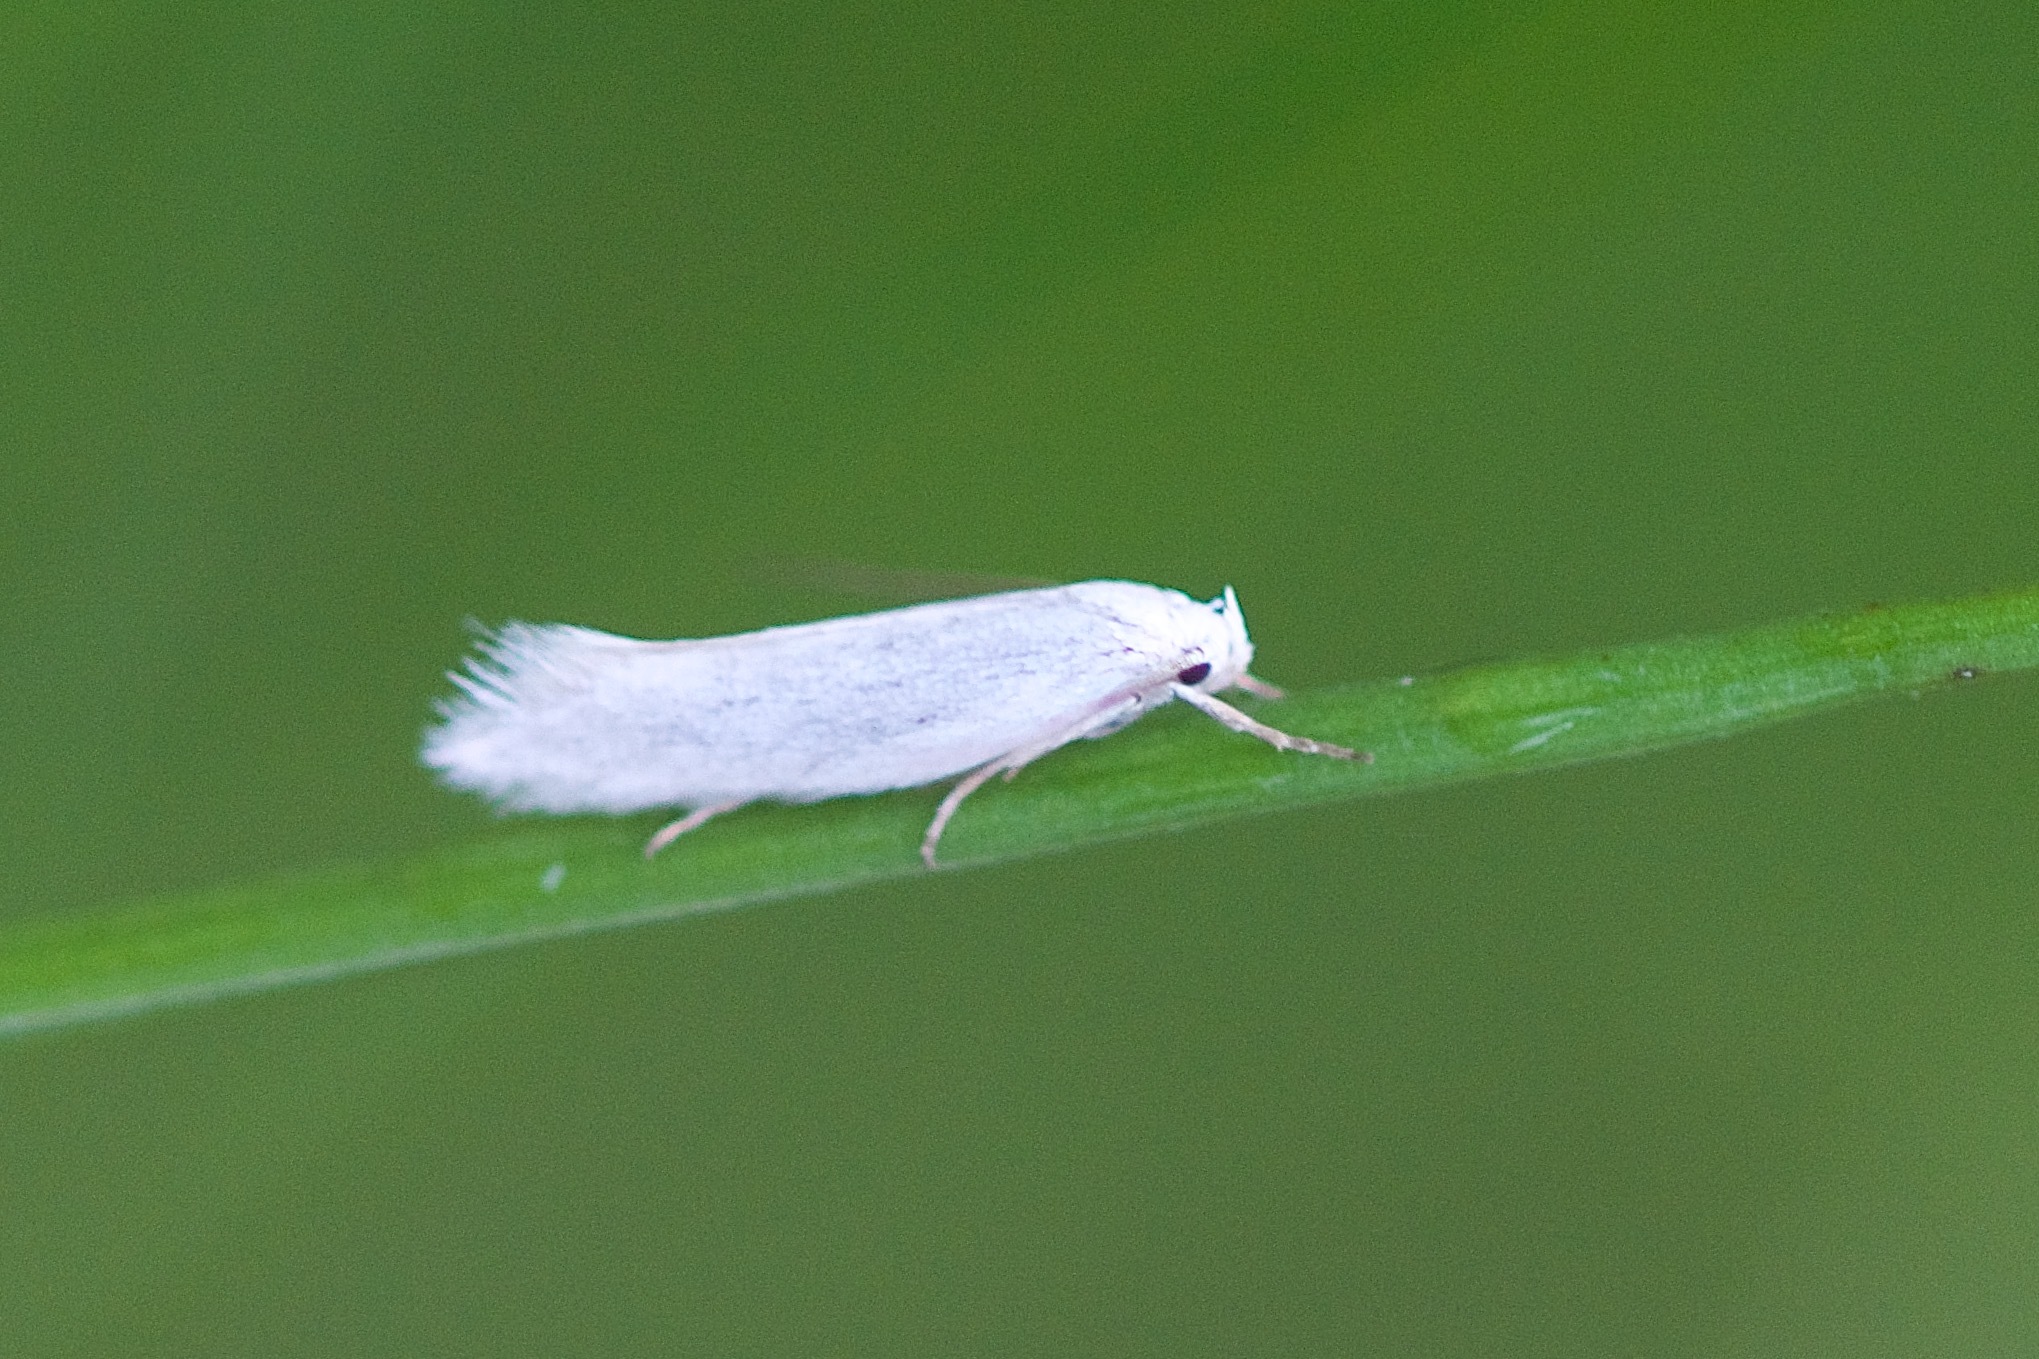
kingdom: Animalia
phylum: Arthropoda
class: Insecta
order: Lepidoptera
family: Elachistidae
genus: Elachista
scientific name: Elachista acenteta
